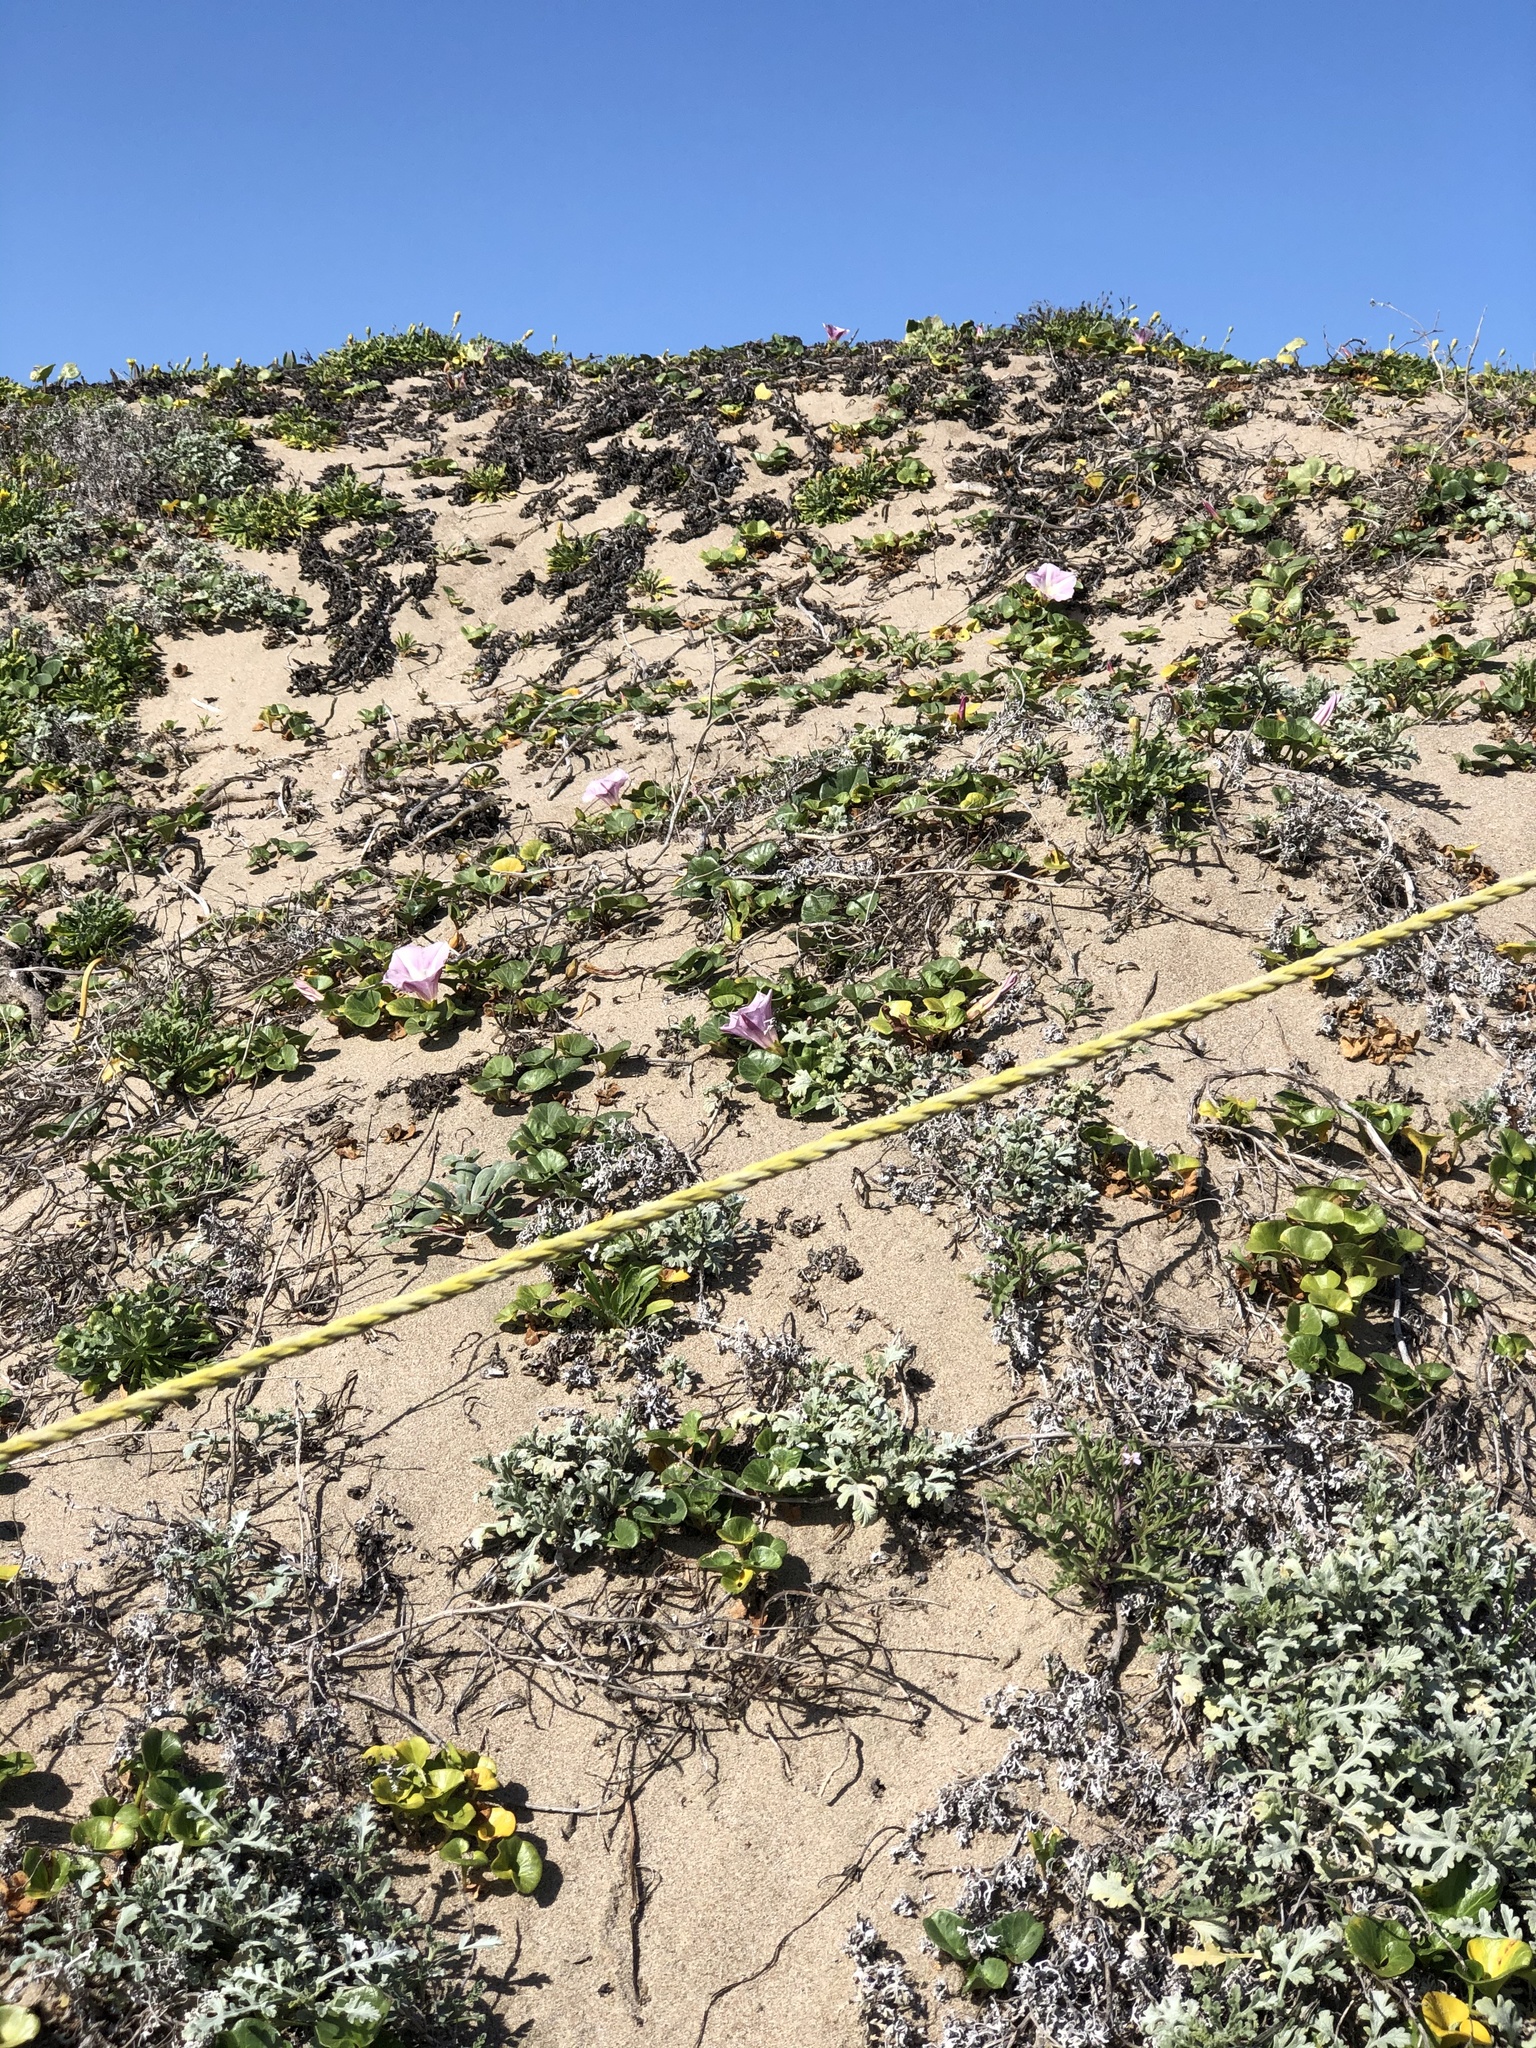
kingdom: Plantae
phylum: Tracheophyta
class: Magnoliopsida
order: Solanales
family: Convolvulaceae
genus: Calystegia
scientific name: Calystegia soldanella
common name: Sea bindweed
